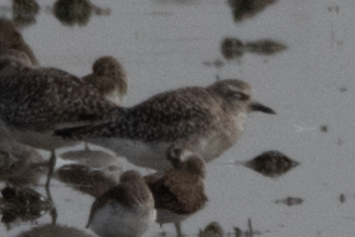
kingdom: Animalia
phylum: Chordata
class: Aves
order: Charadriiformes
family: Charadriidae
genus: Pluvialis
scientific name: Pluvialis squatarola
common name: Grey plover
